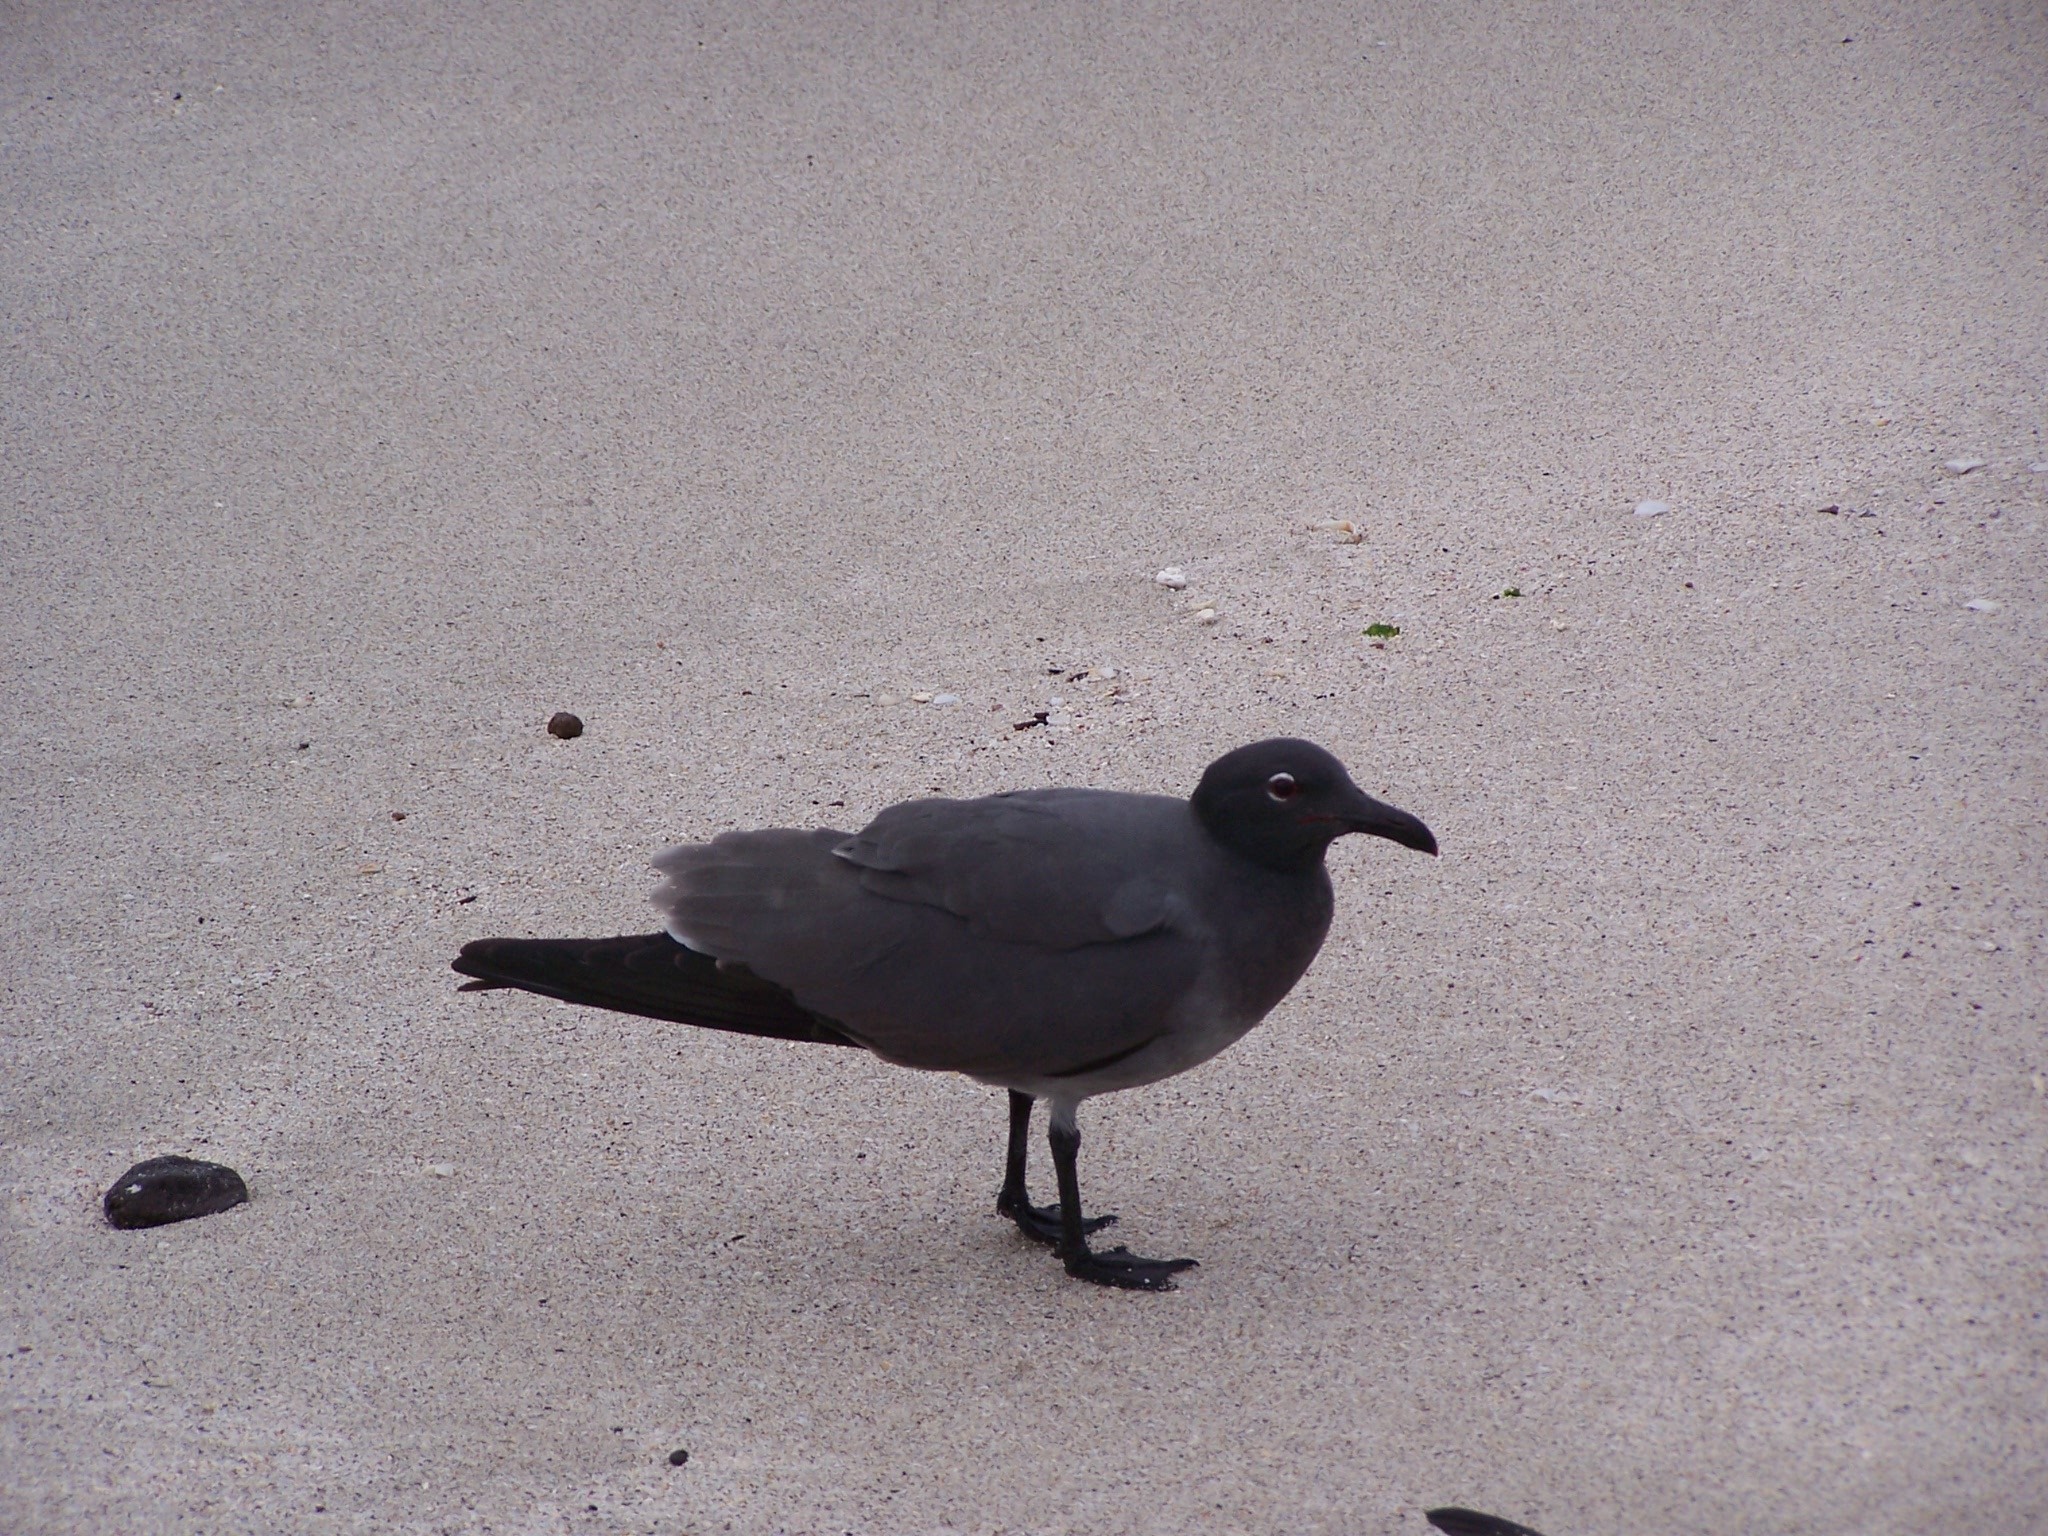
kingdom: Animalia
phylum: Chordata
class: Aves
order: Charadriiformes
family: Laridae
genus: Leucophaeus
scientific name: Leucophaeus fuliginosus
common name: Lava gull
